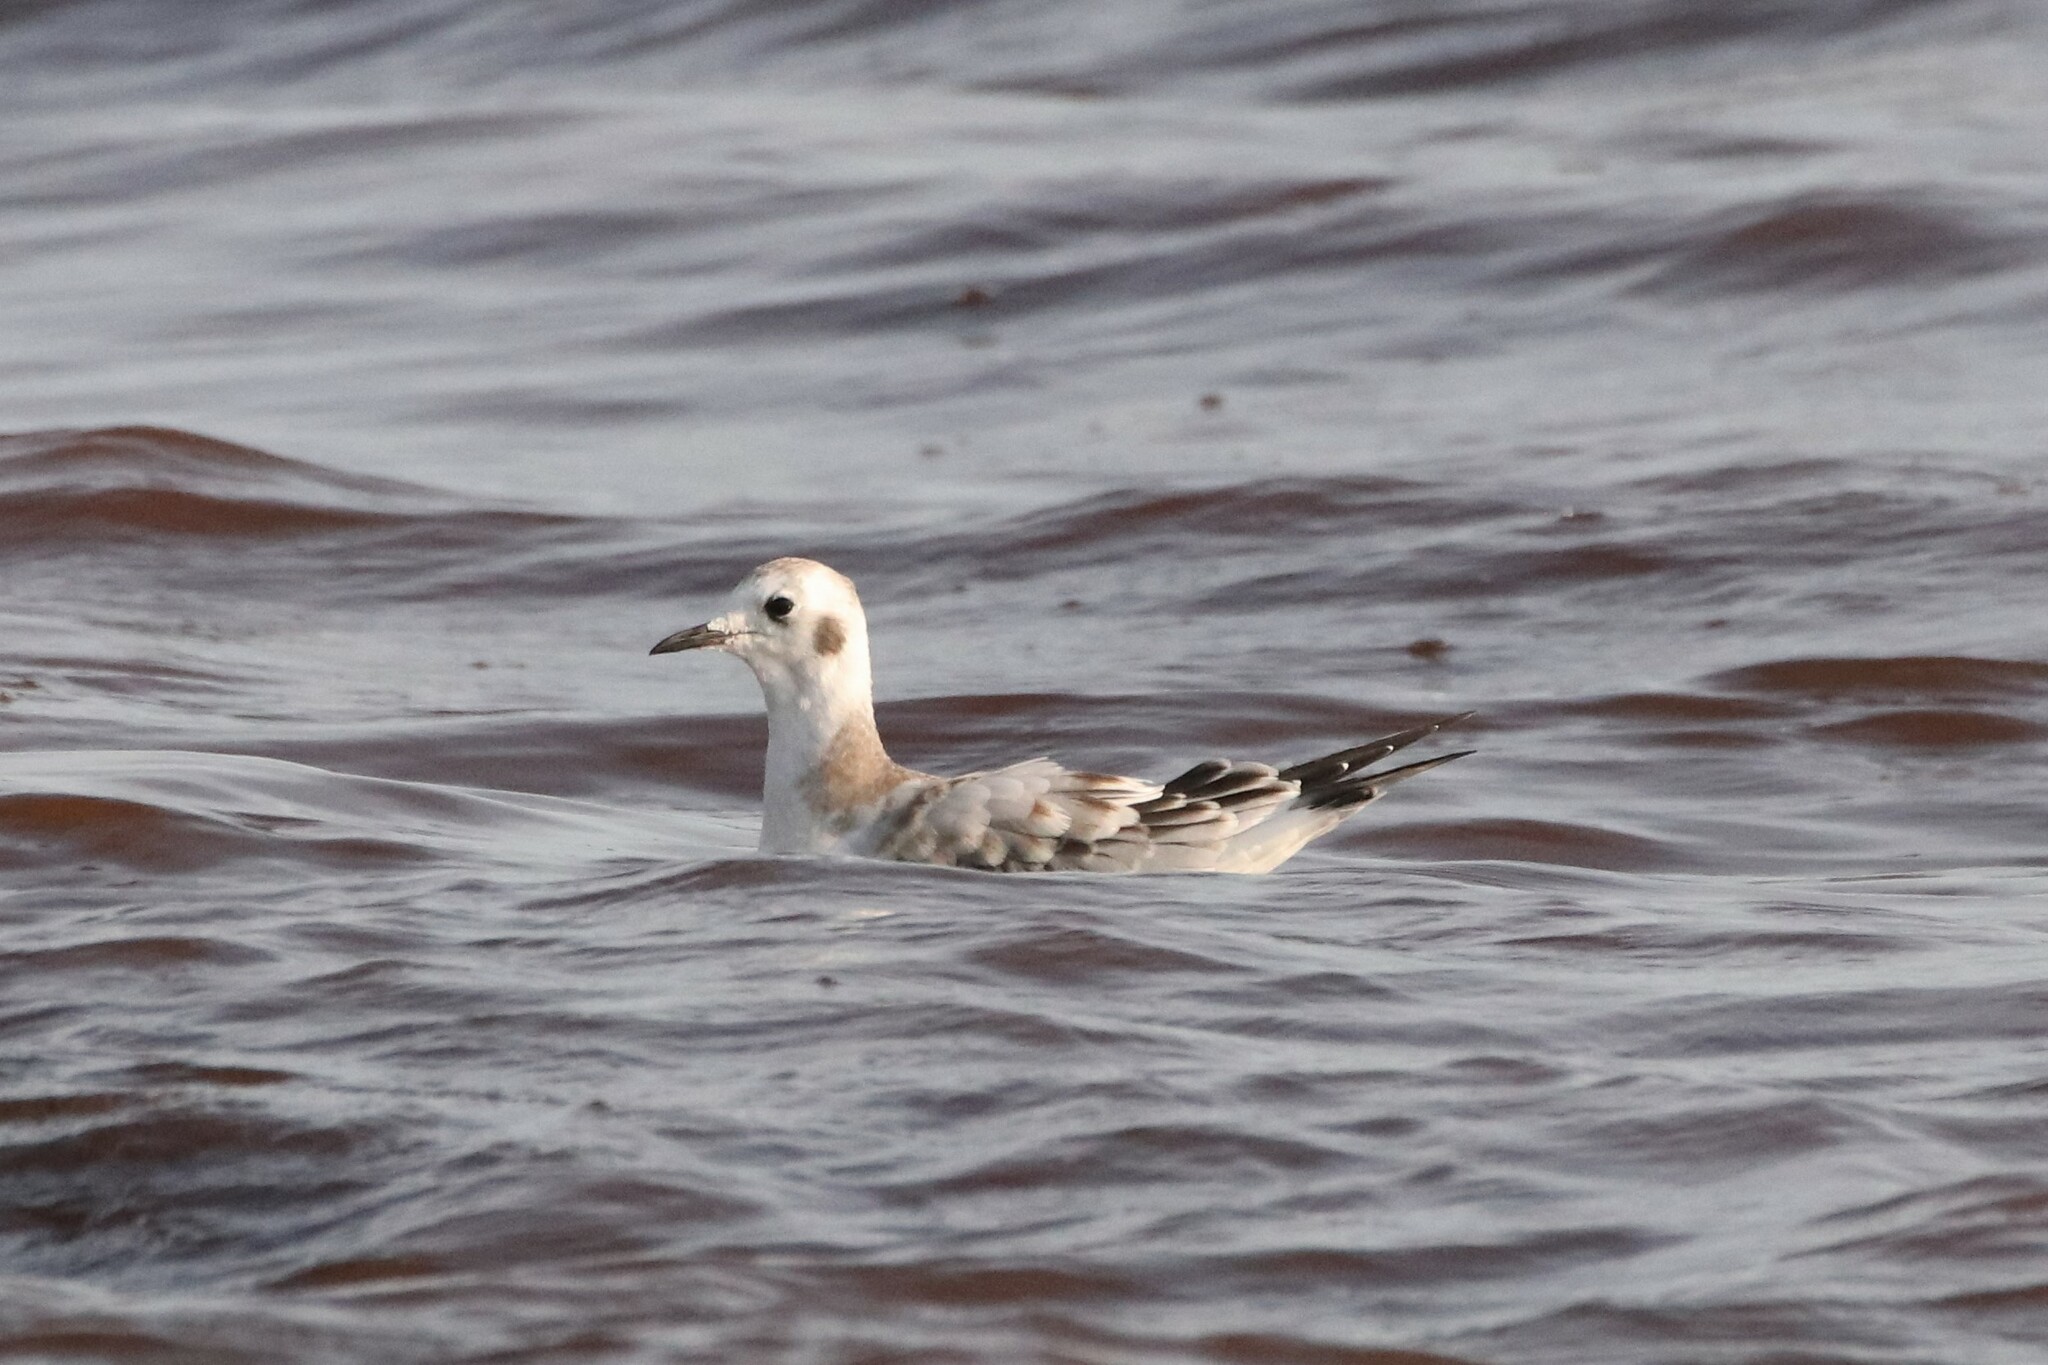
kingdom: Animalia
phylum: Chordata
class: Aves
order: Charadriiformes
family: Laridae
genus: Chroicocephalus
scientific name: Chroicocephalus philadelphia
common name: Bonaparte's gull
